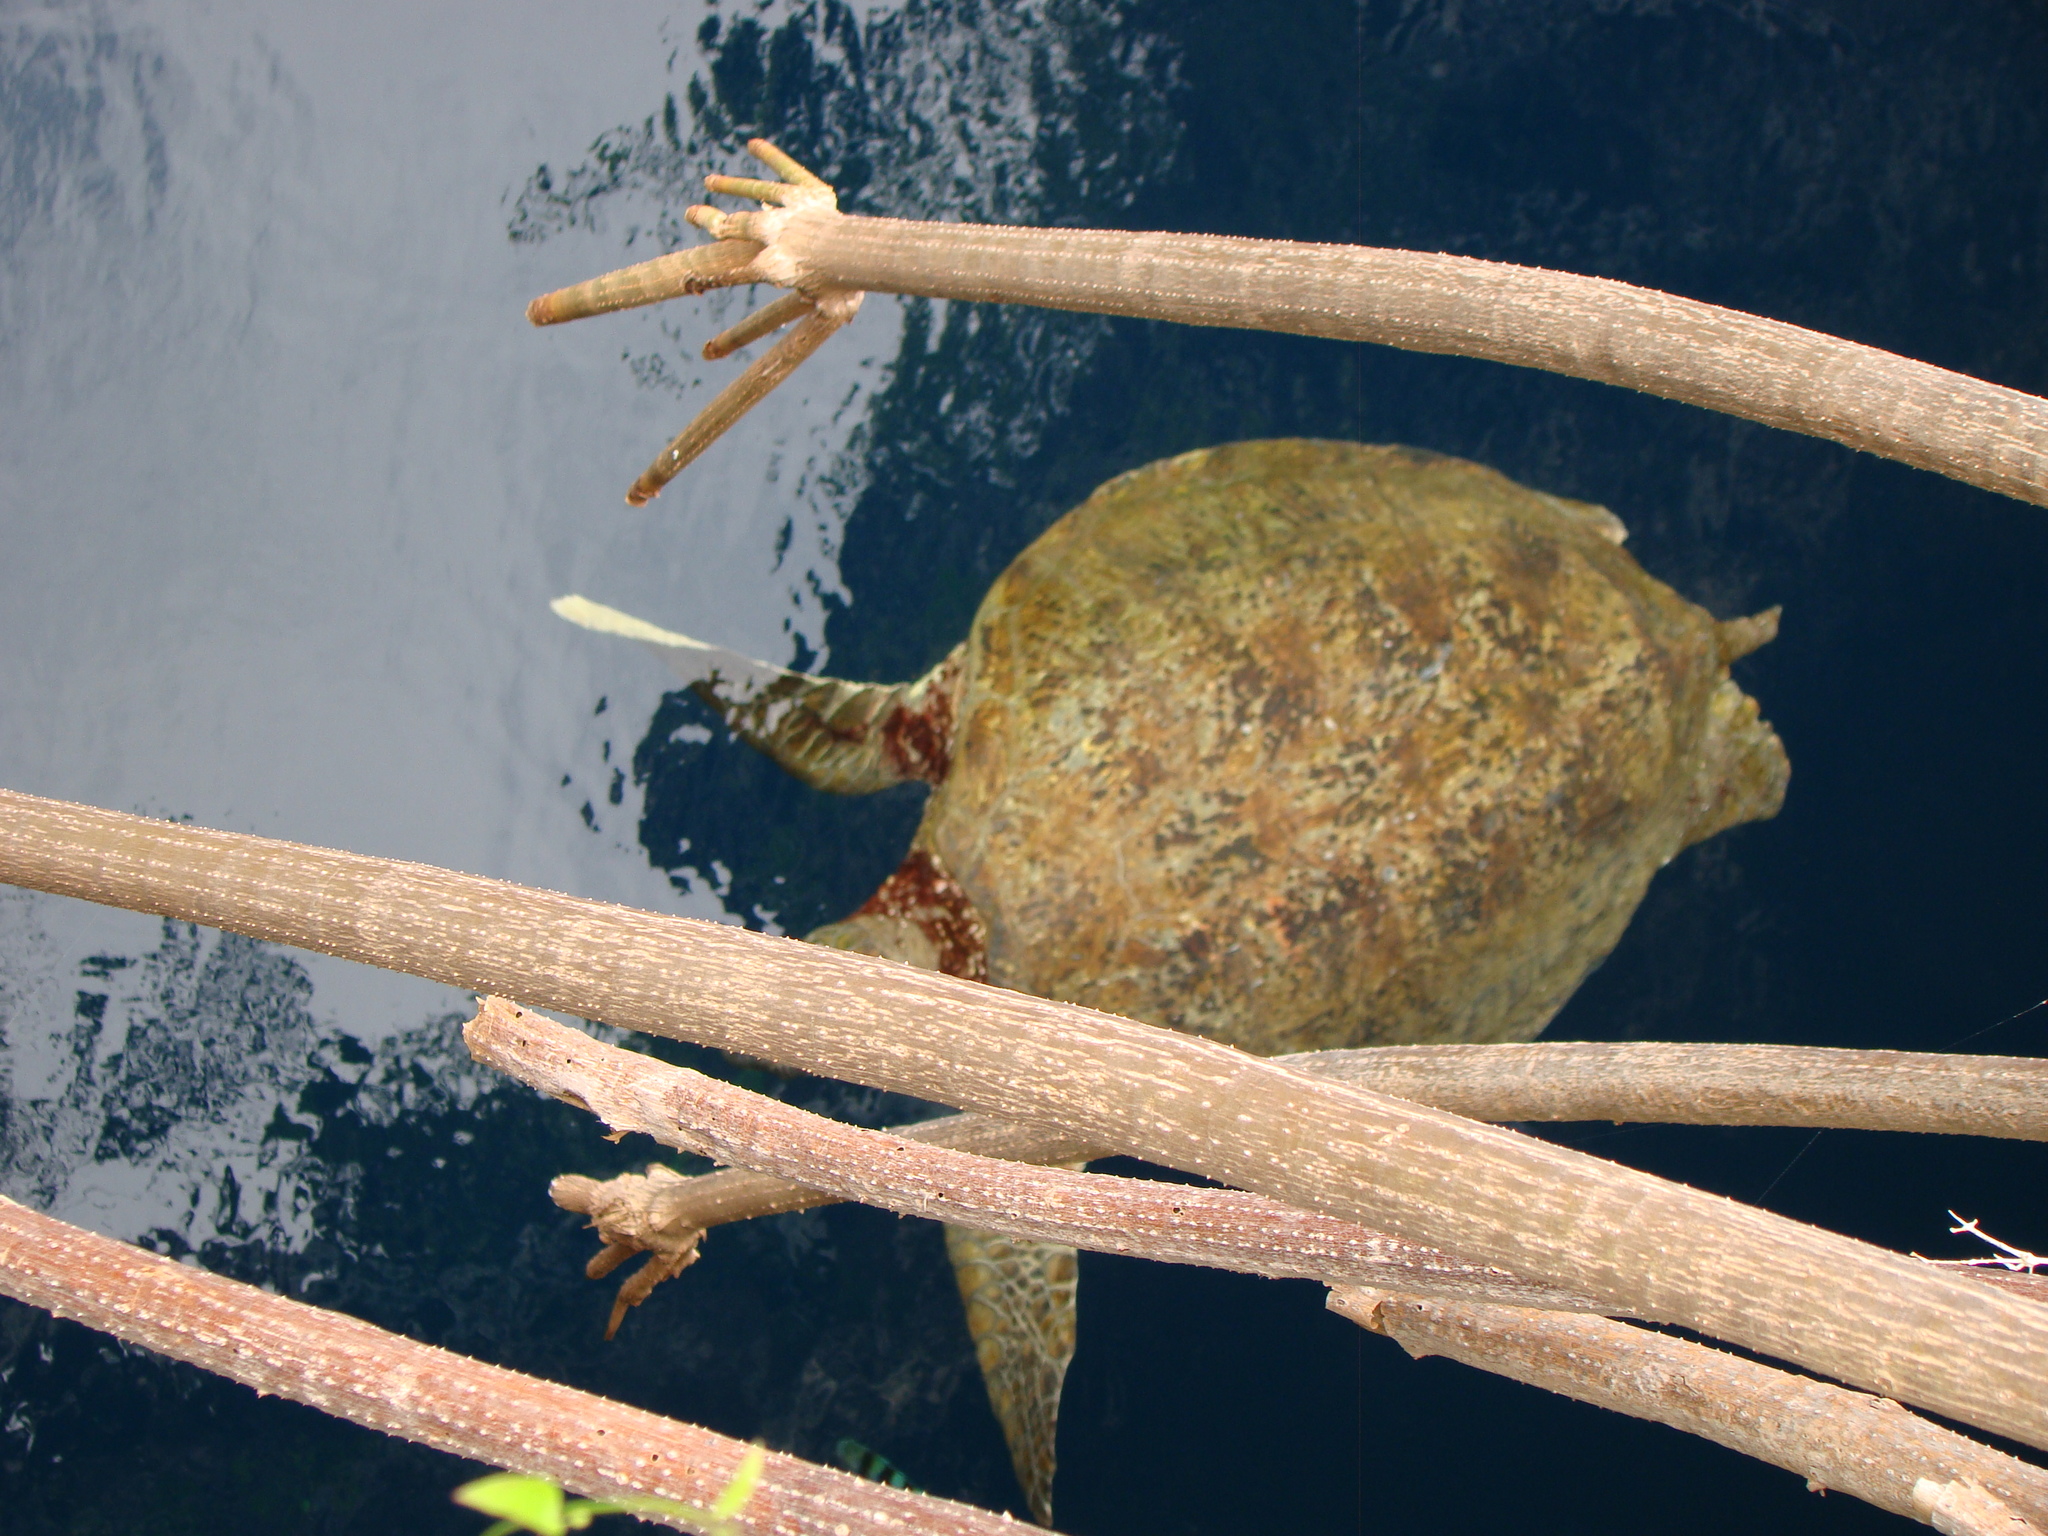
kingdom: Animalia
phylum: Chordata
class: Testudines
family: Cheloniidae
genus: Chelonia
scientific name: Chelonia mydas
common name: Green turtle
